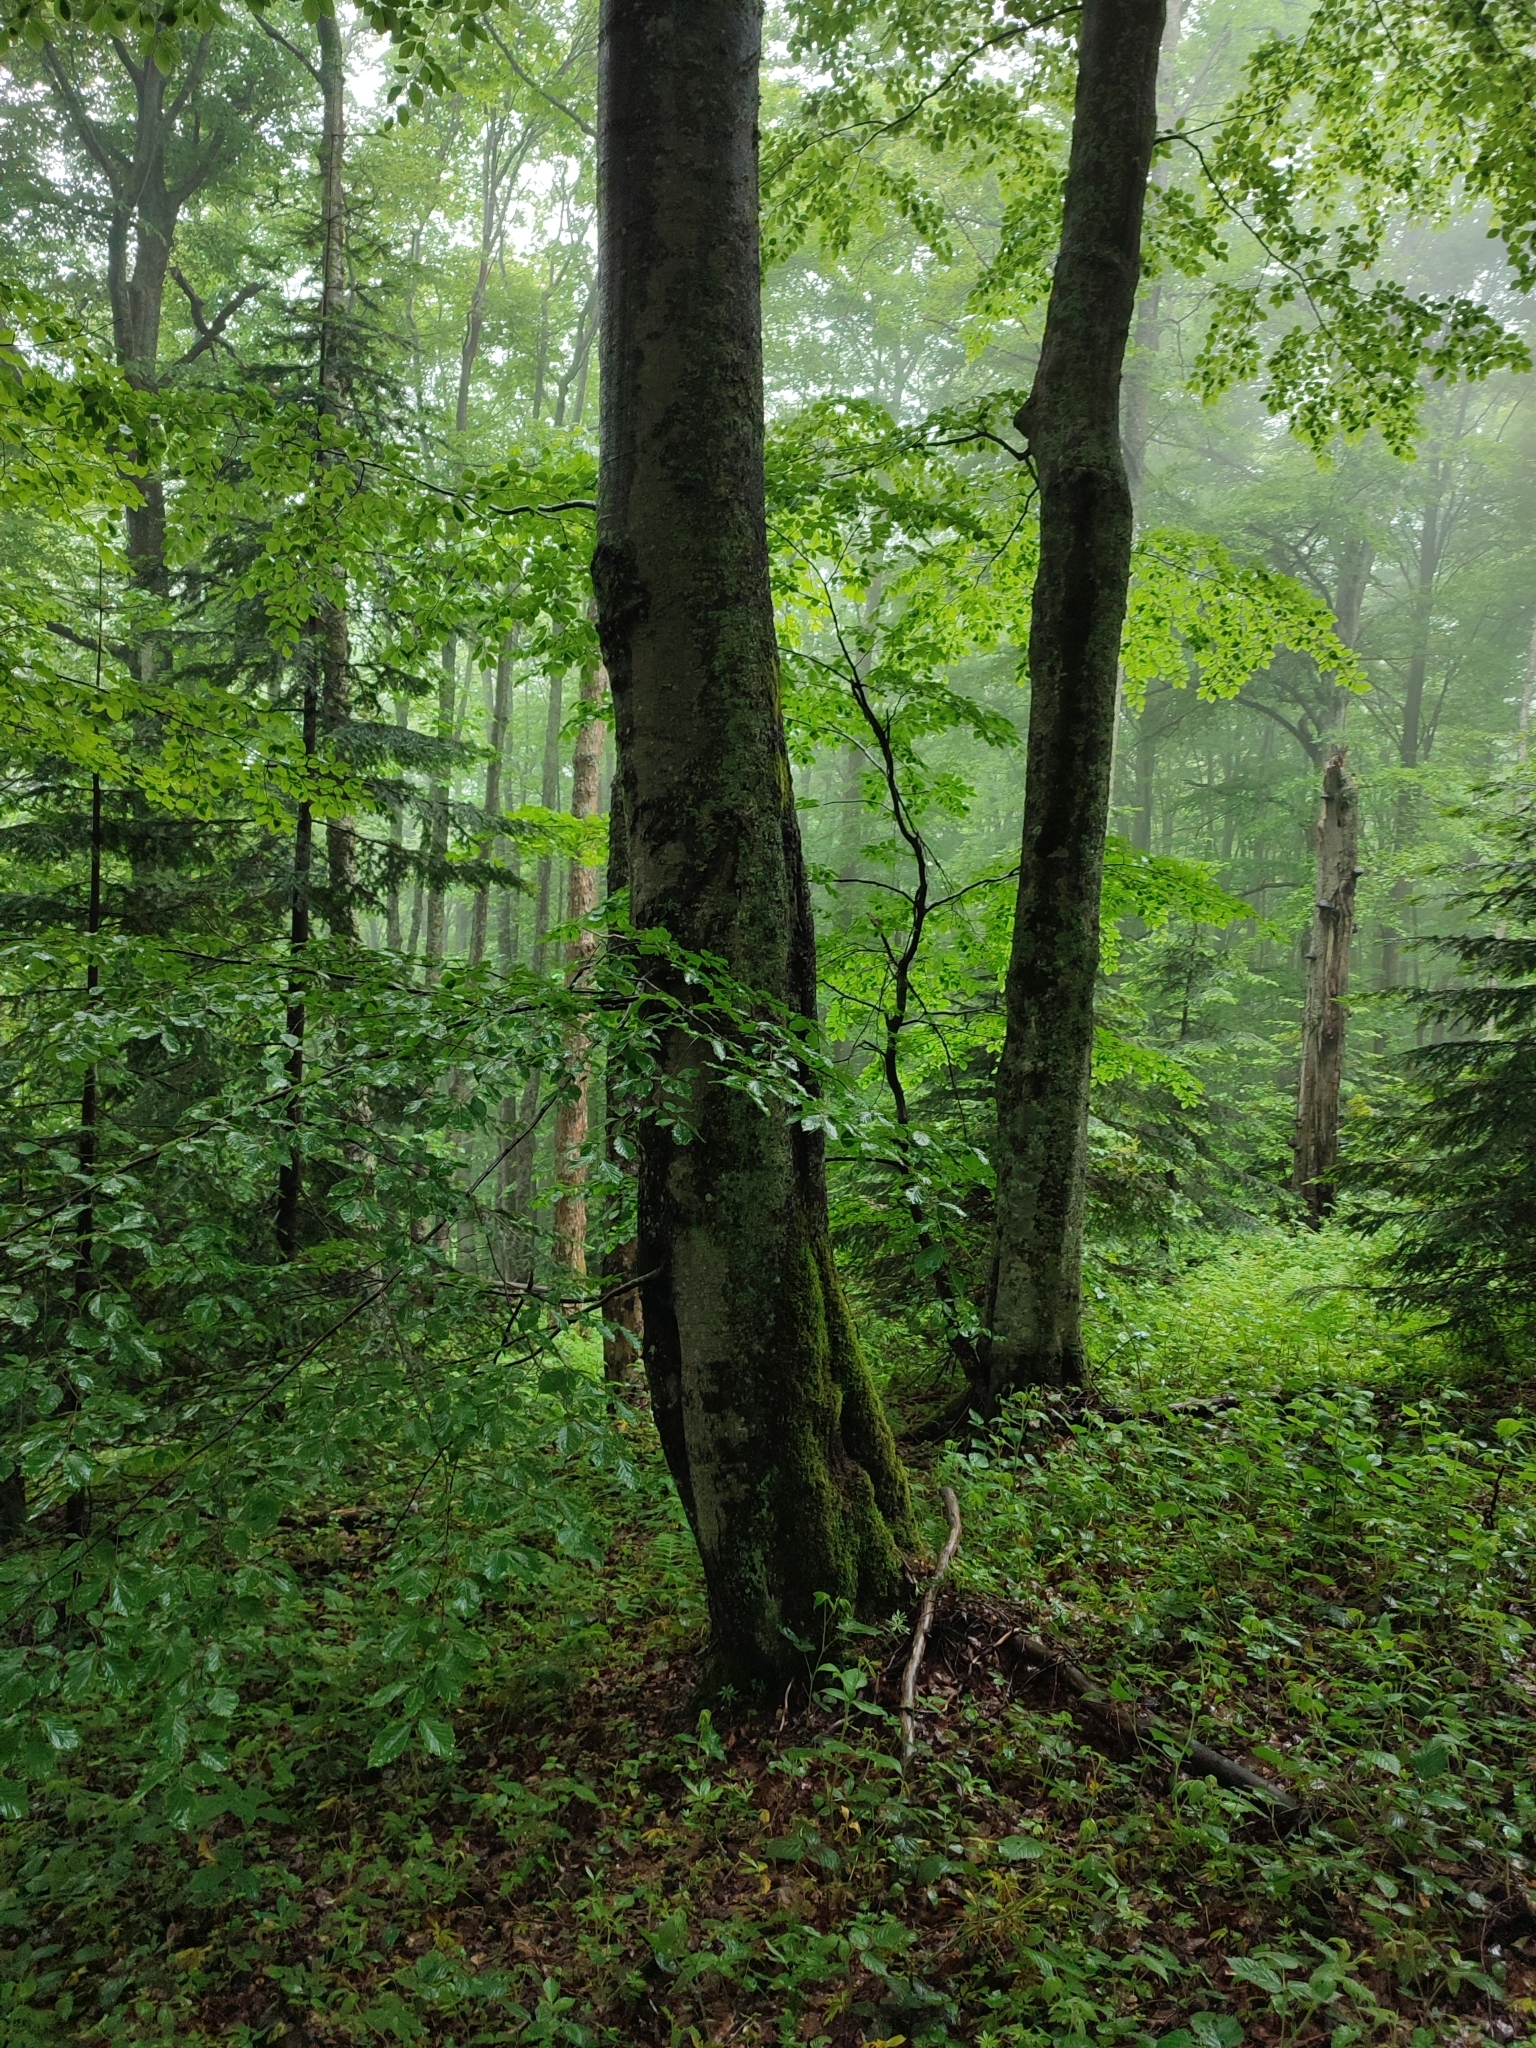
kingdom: Plantae
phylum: Tracheophyta
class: Magnoliopsida
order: Fagales
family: Fagaceae
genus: Fagus
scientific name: Fagus sylvatica
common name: Beech
